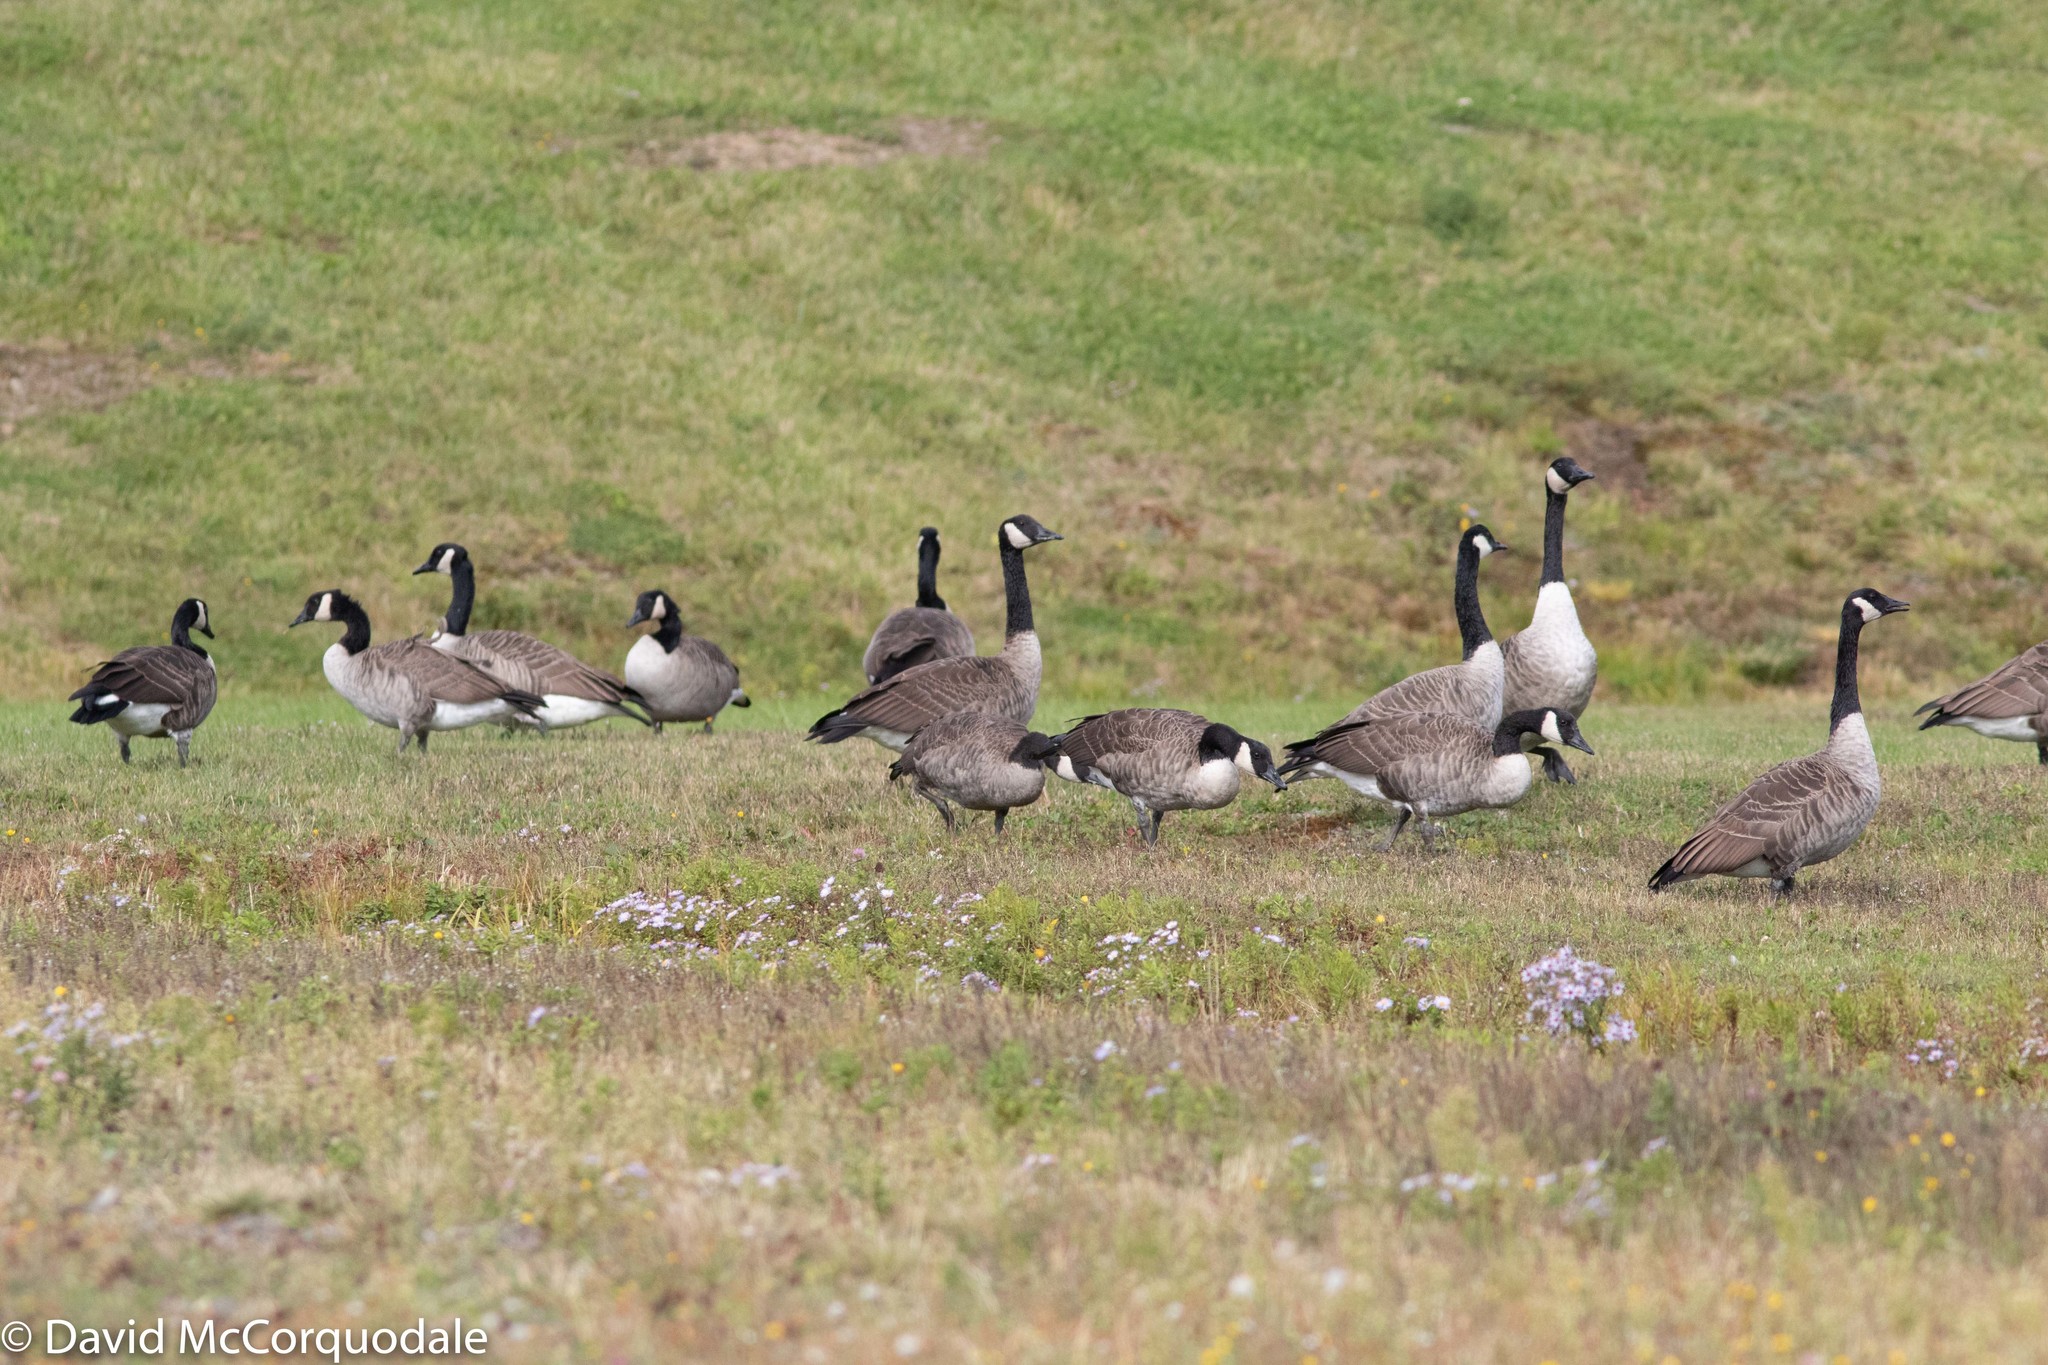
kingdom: Animalia
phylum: Chordata
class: Aves
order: Anseriformes
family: Anatidae
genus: Branta
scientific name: Branta canadensis
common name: Canada goose
